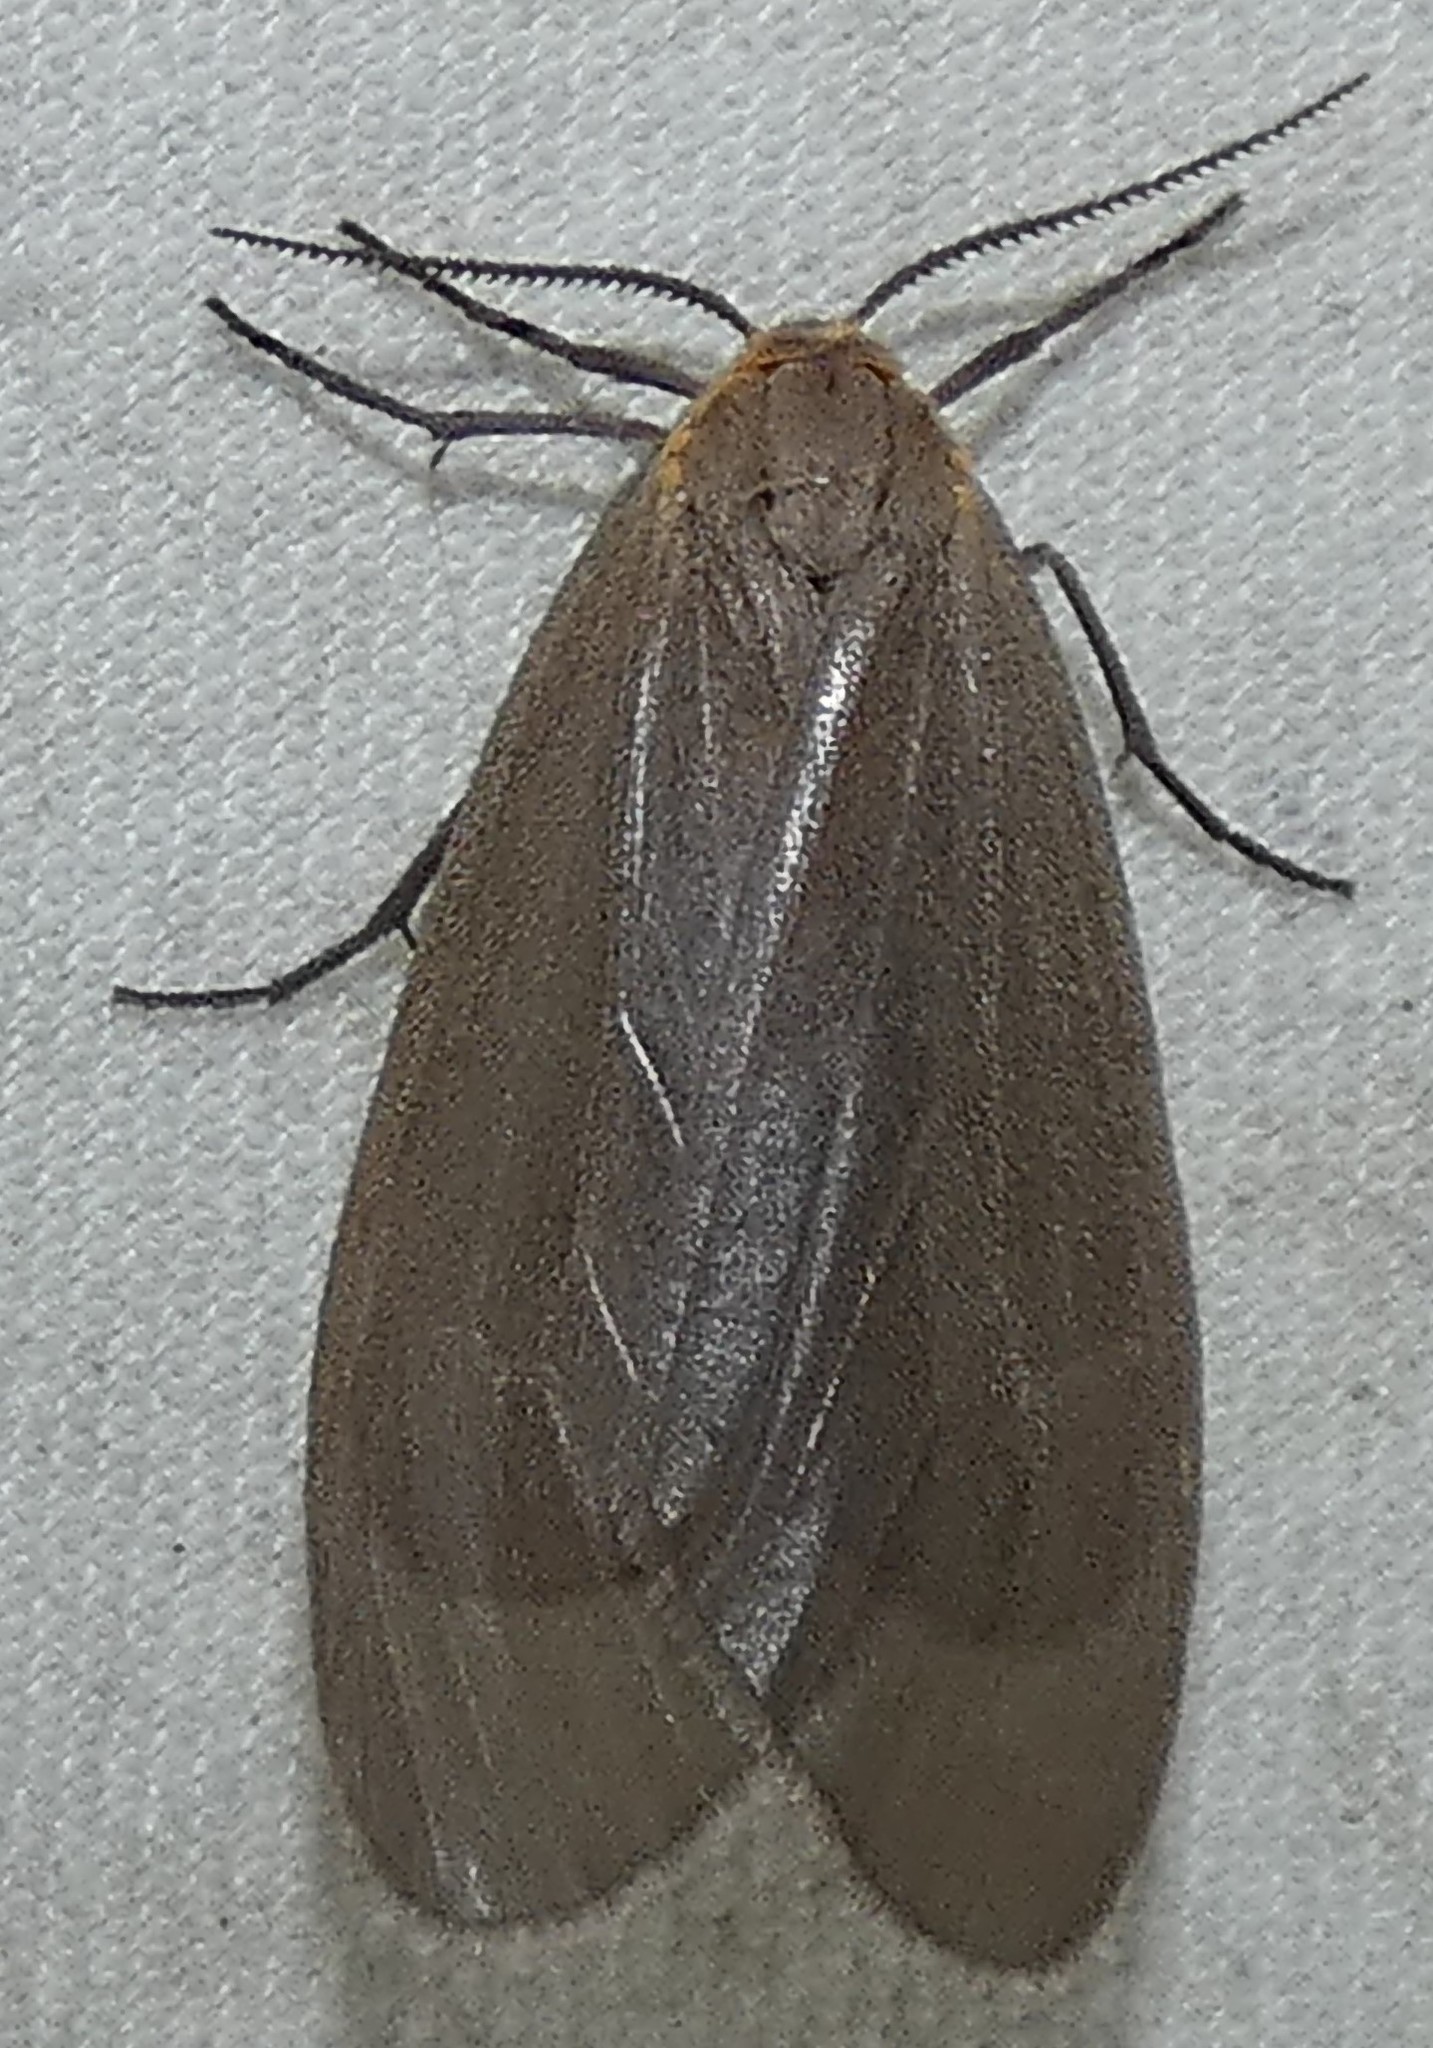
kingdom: Animalia
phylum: Arthropoda
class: Insecta
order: Lepidoptera
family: Erebidae
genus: Pagara
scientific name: Pagara simplex
